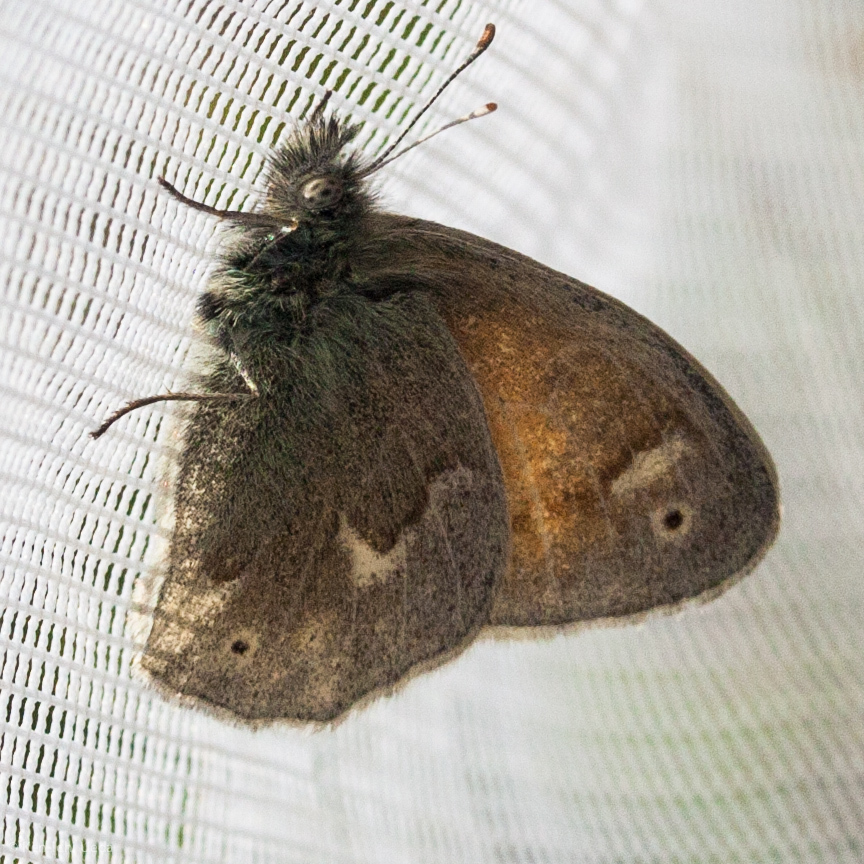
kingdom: Animalia
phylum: Arthropoda
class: Insecta
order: Lepidoptera
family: Nymphalidae
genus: Coenonympha
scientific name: Coenonympha california
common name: Common ringlet
